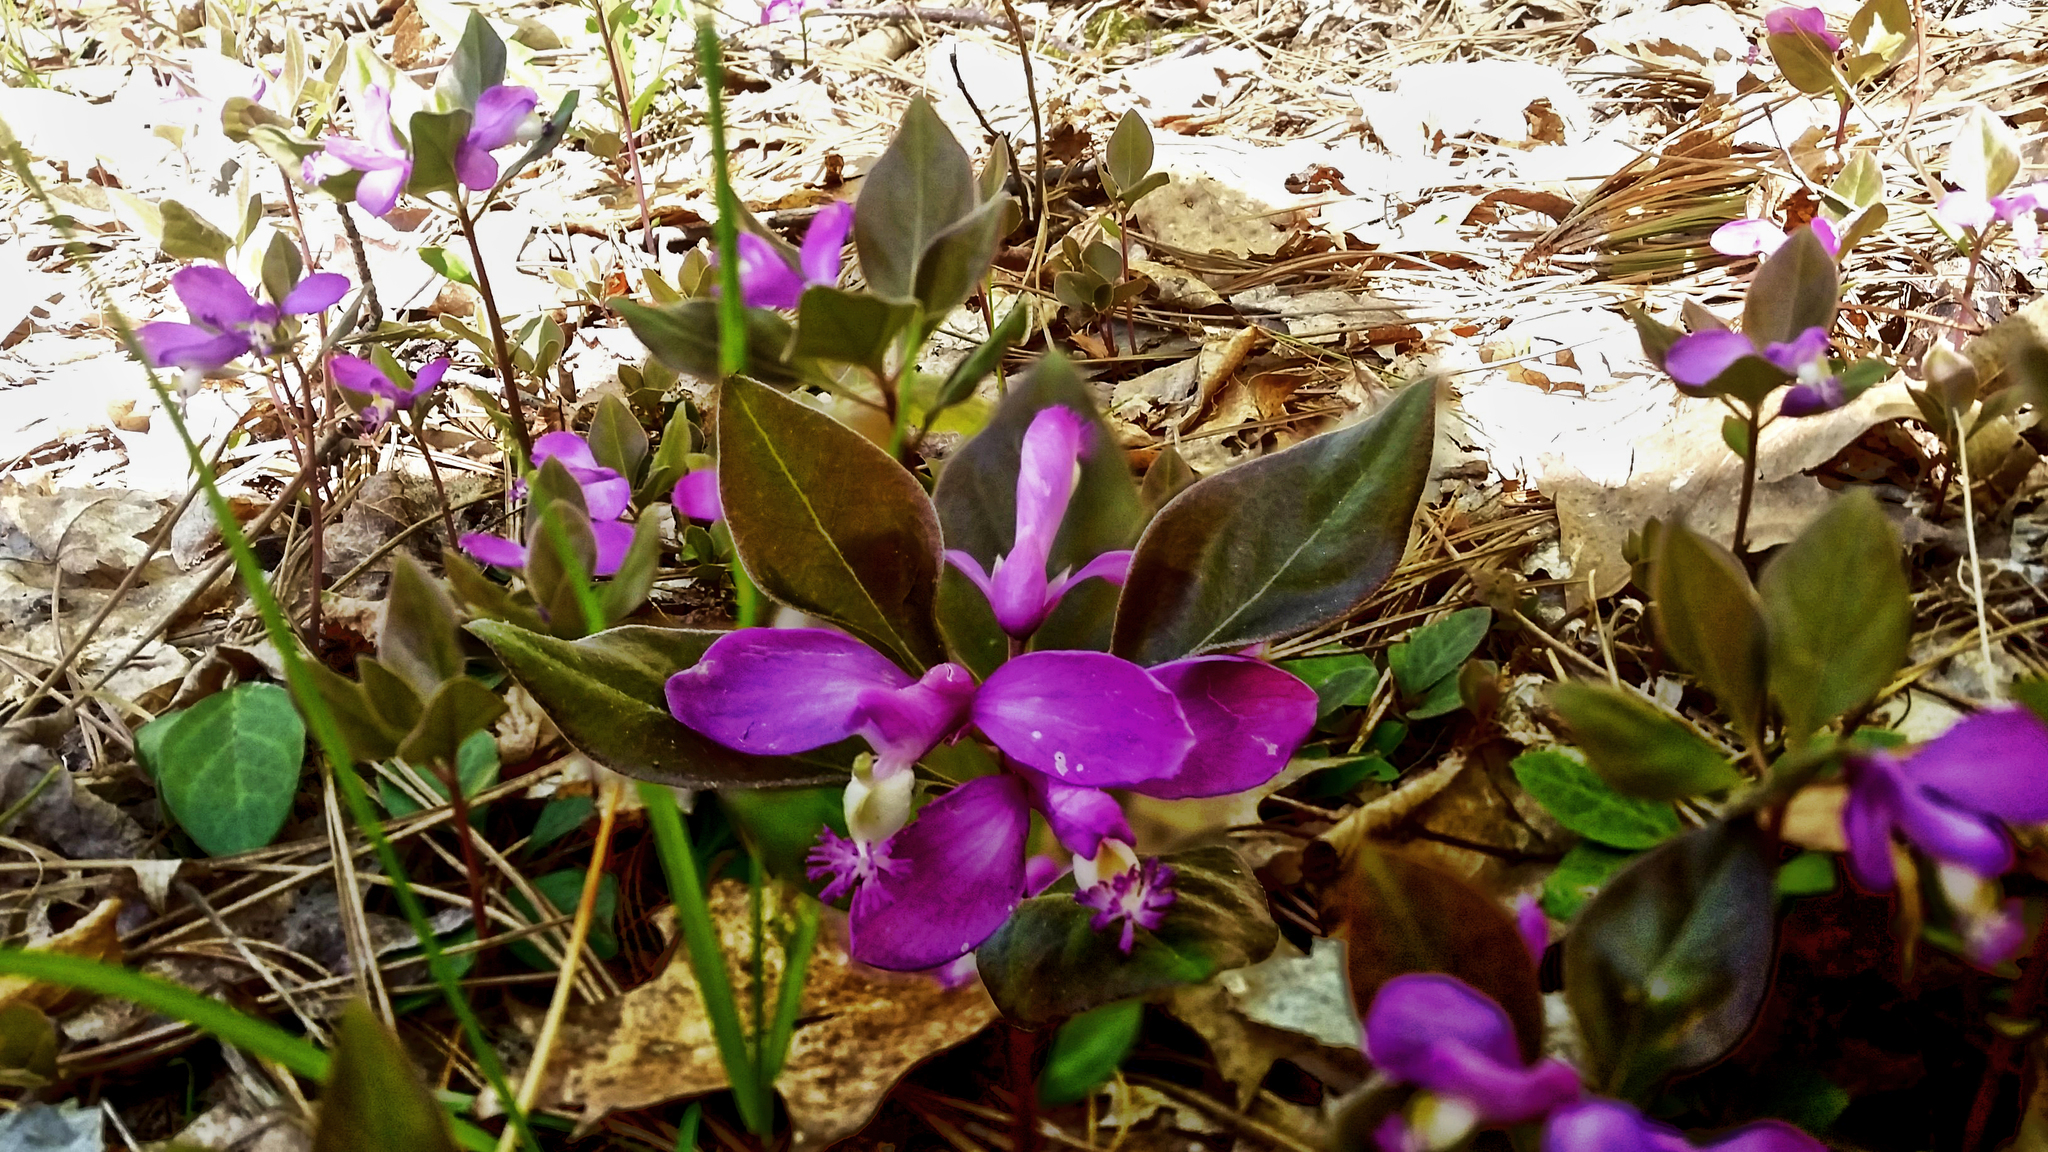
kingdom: Plantae
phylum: Tracheophyta
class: Magnoliopsida
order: Fabales
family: Polygalaceae
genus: Polygaloides
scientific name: Polygaloides paucifolia
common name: Bird-on-the-wing
